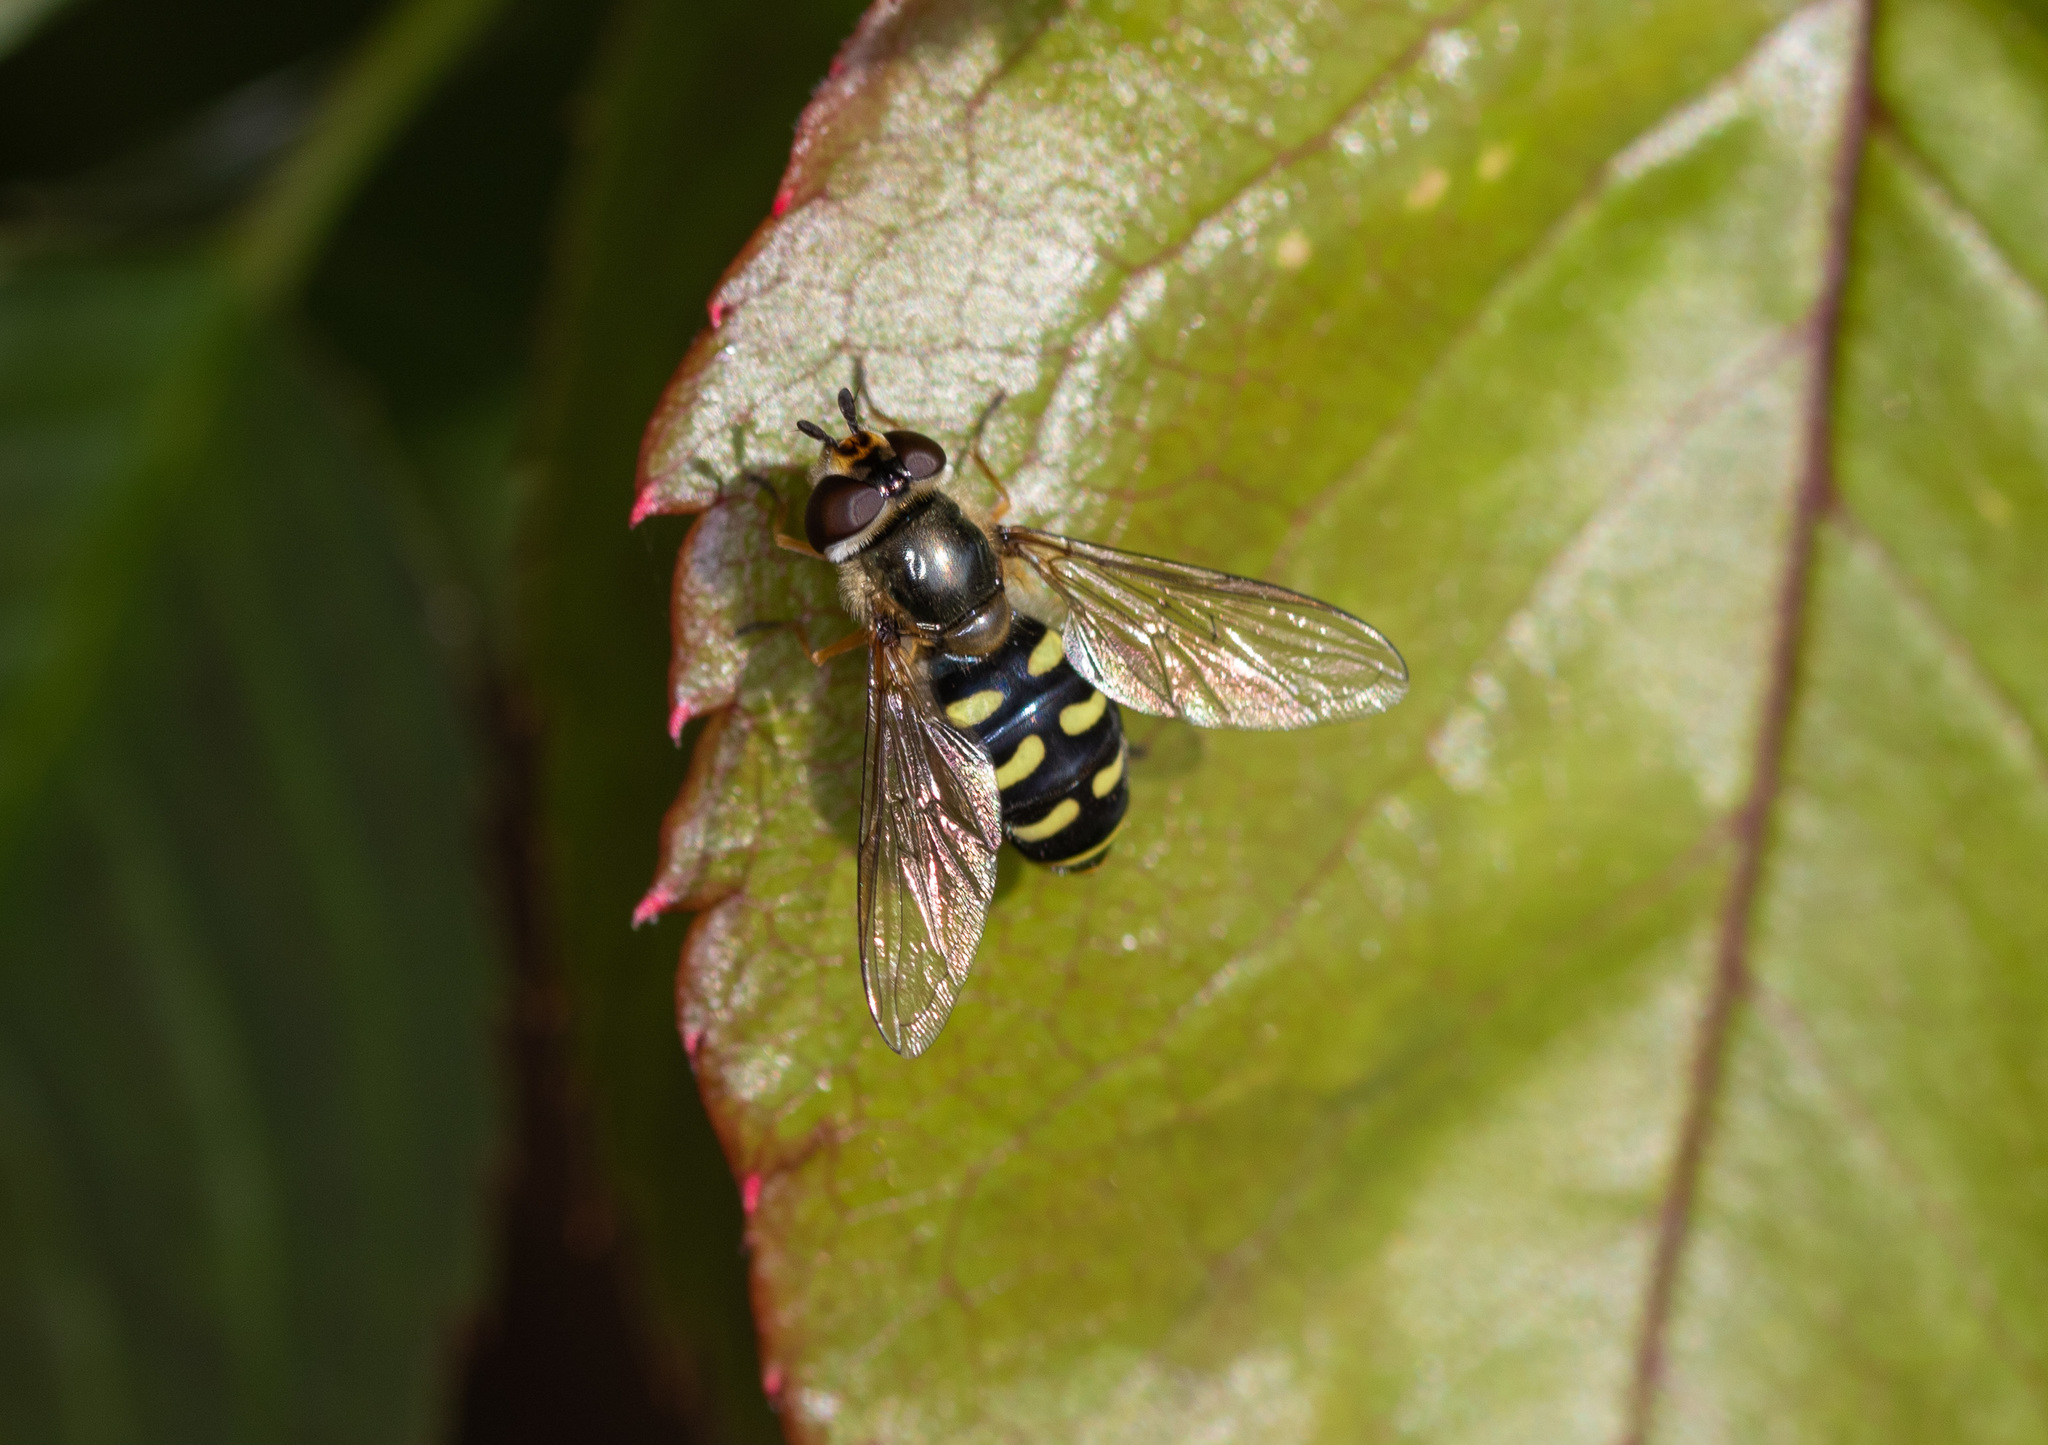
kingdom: Animalia
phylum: Arthropoda
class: Insecta
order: Diptera
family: Syrphidae
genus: Eupeodes
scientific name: Eupeodes luniger
